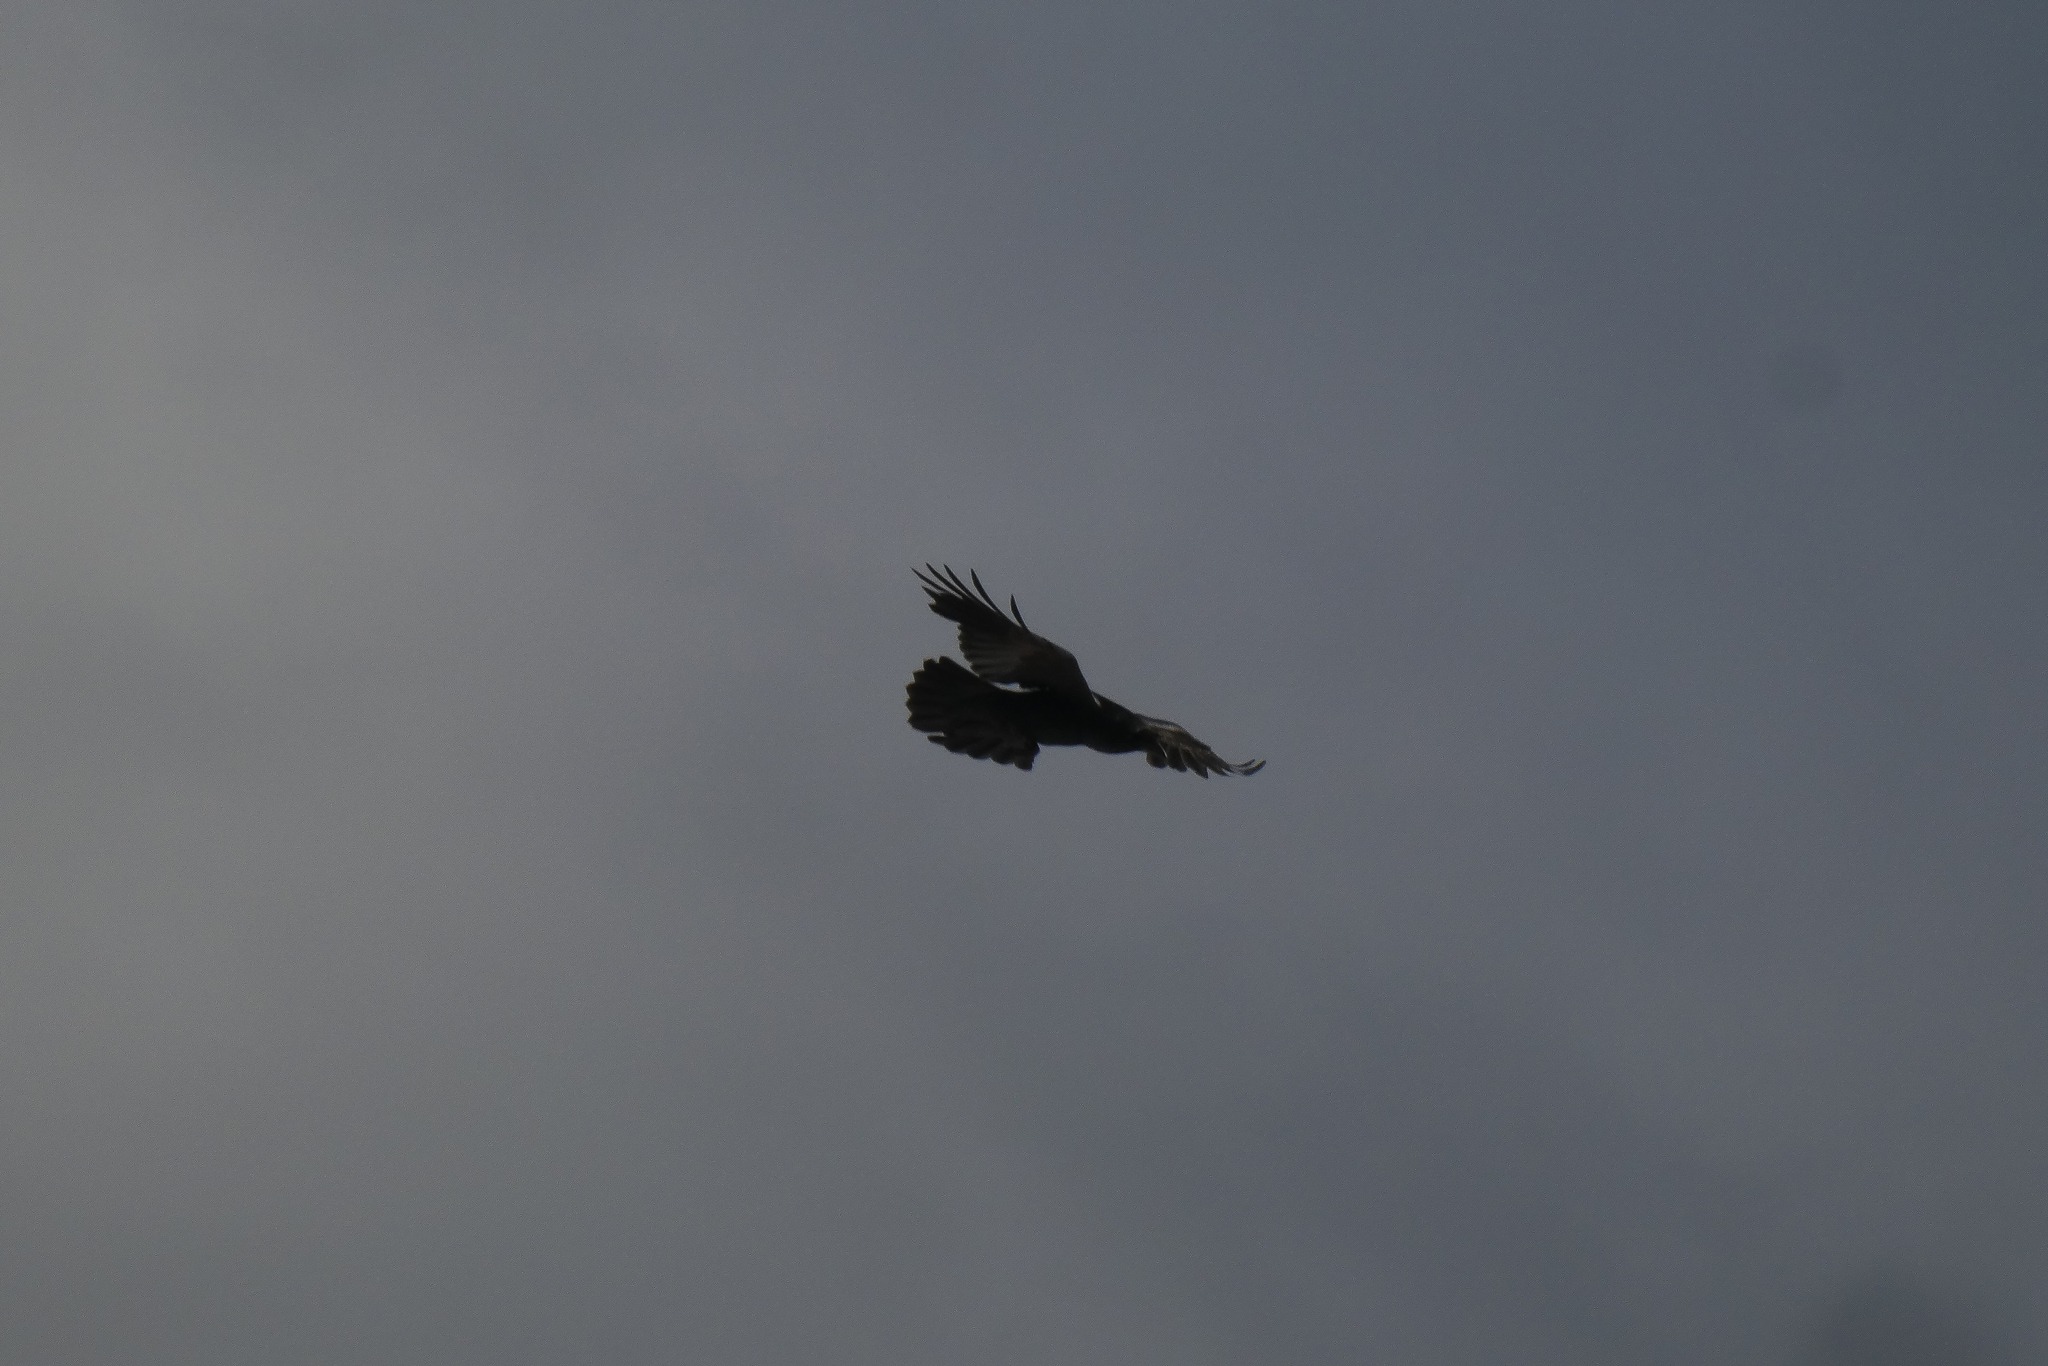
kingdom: Animalia
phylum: Chordata
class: Aves
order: Passeriformes
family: Corvidae
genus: Corvus
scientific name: Corvus corax
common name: Common raven
